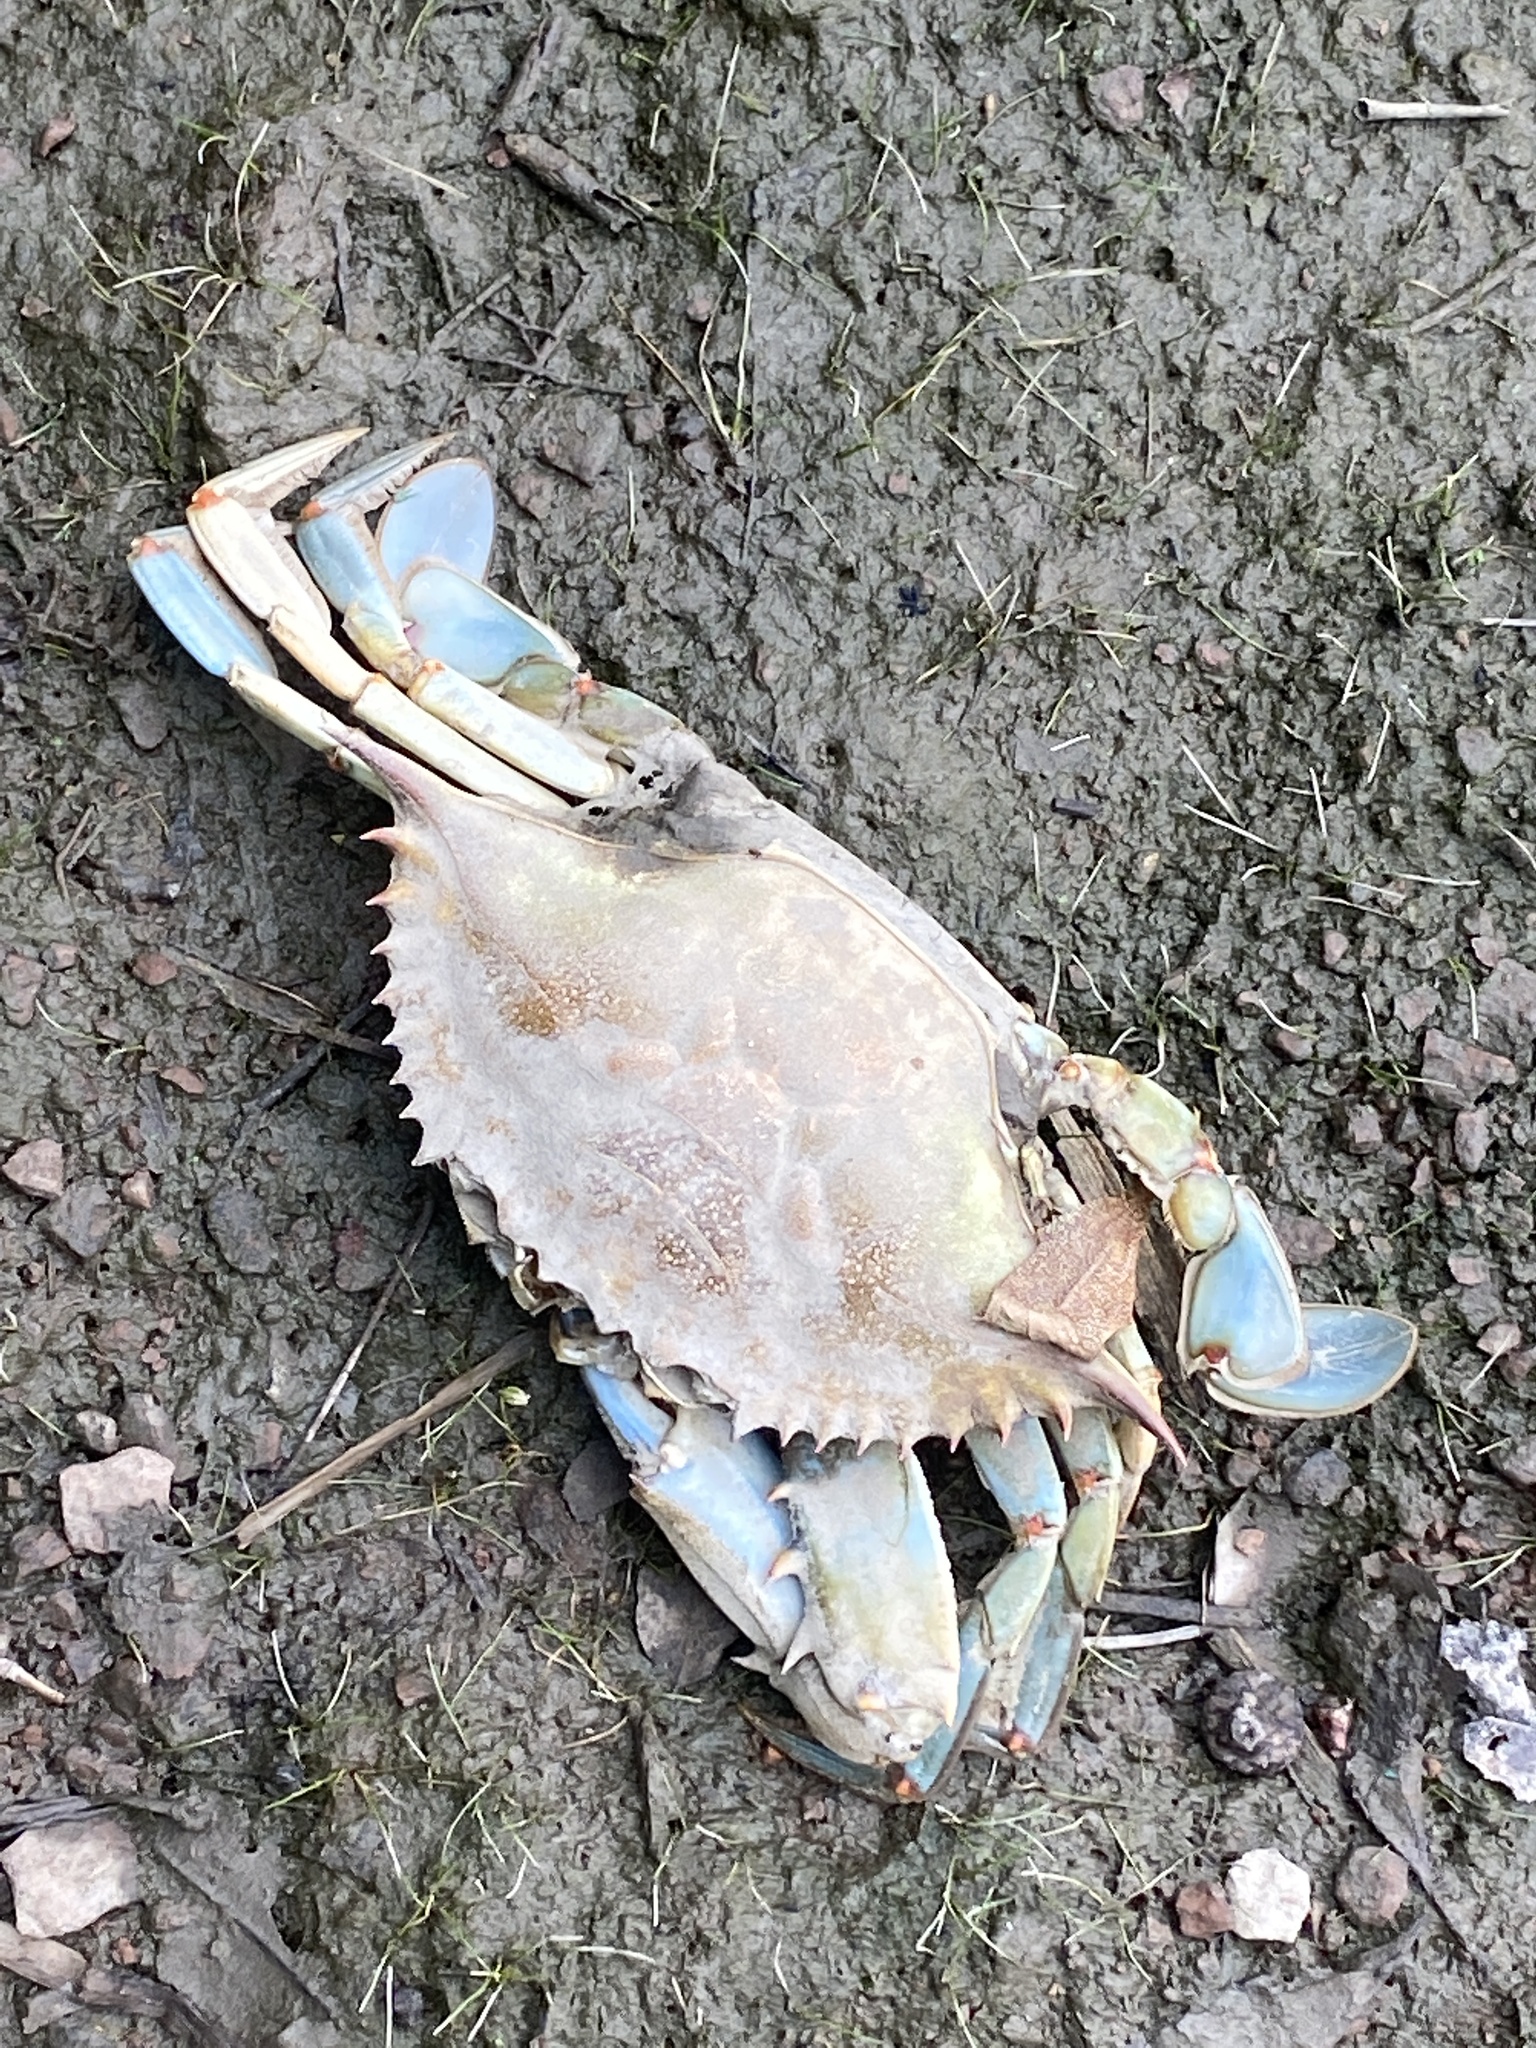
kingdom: Animalia
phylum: Arthropoda
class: Malacostraca
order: Decapoda
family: Portunidae
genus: Callinectes
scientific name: Callinectes sapidus
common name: Blue crab
